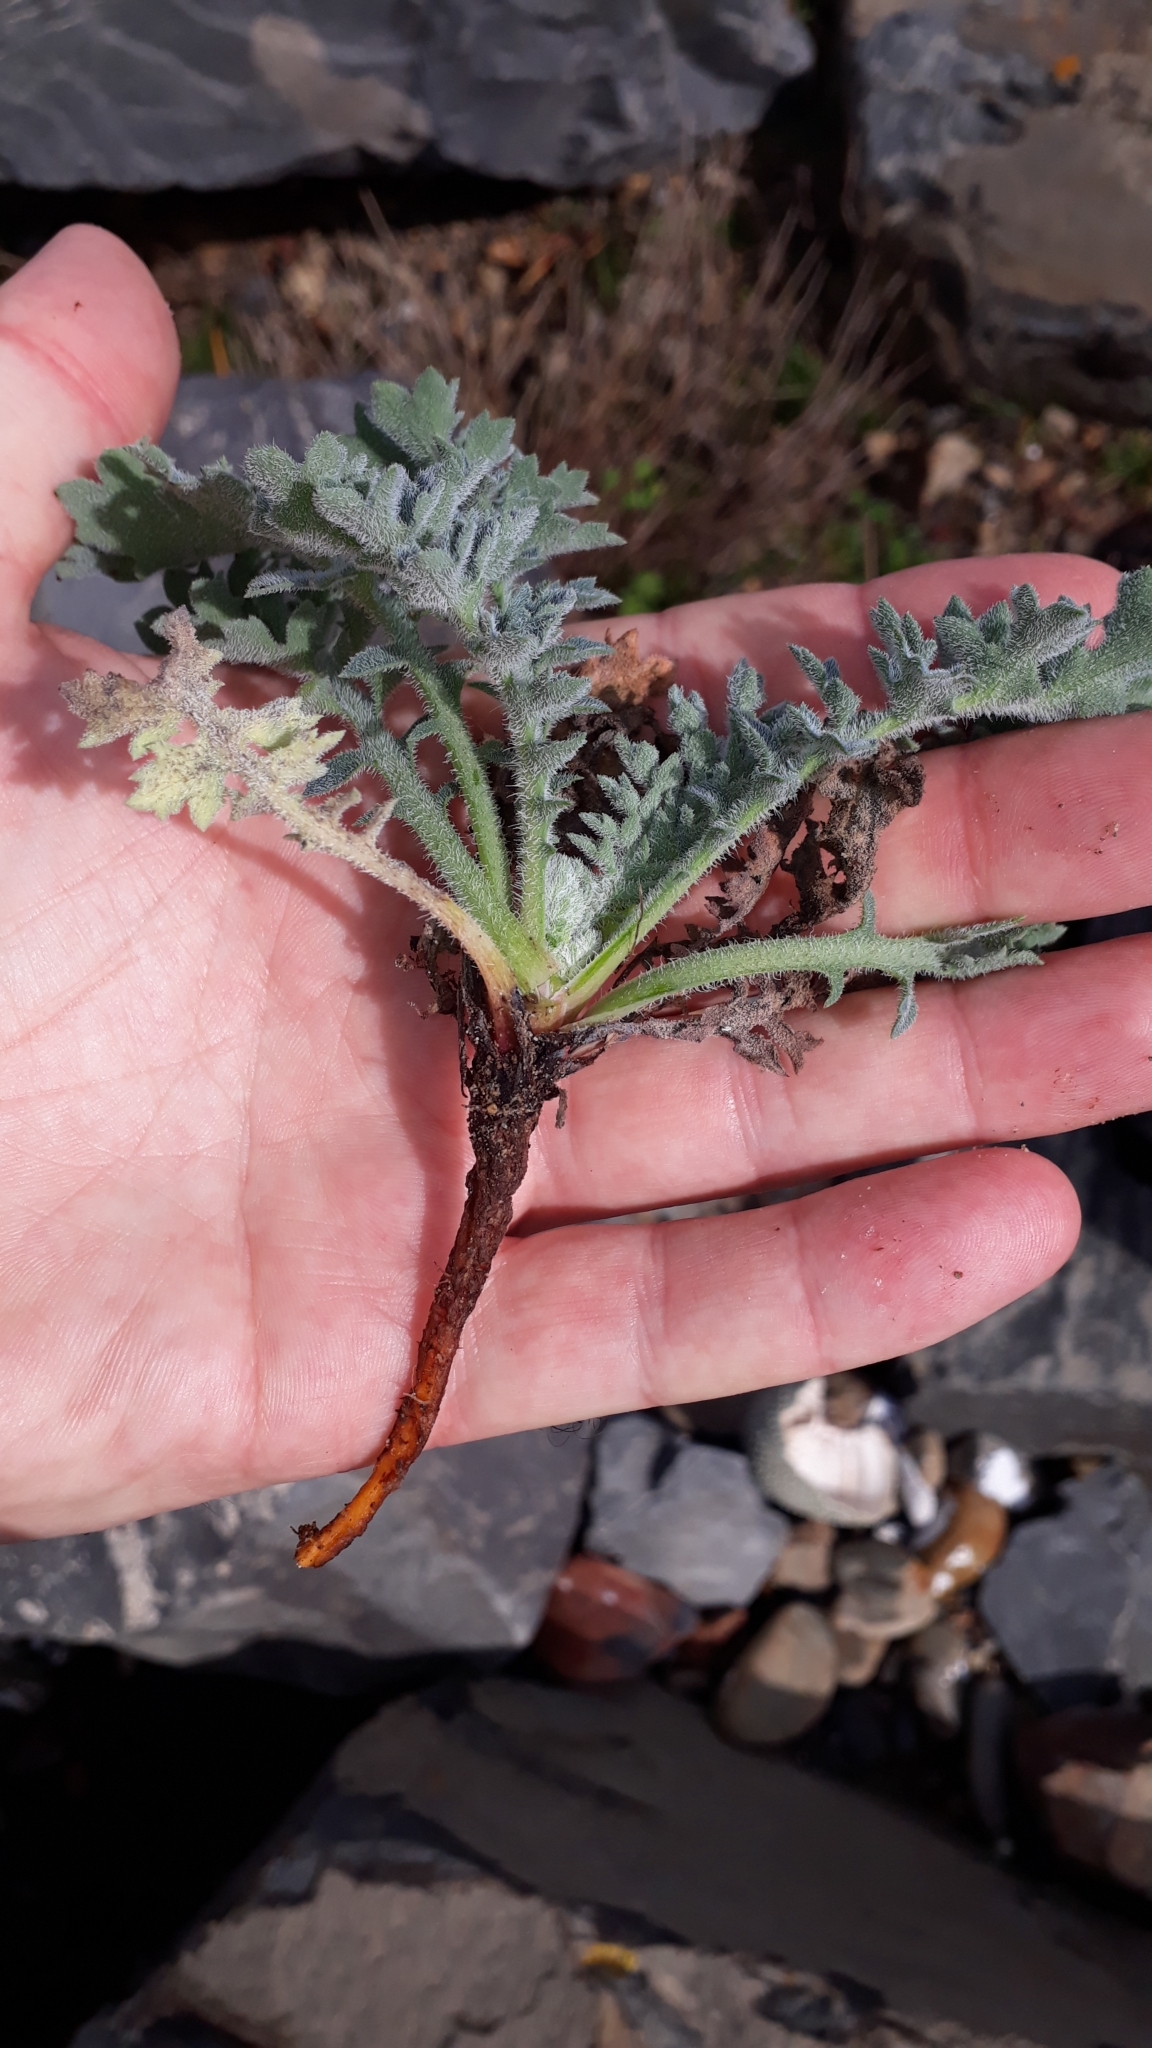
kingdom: Plantae
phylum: Tracheophyta
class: Magnoliopsida
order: Ranunculales
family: Papaveraceae
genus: Glaucium
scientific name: Glaucium flavum
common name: Yellow horned-poppy
